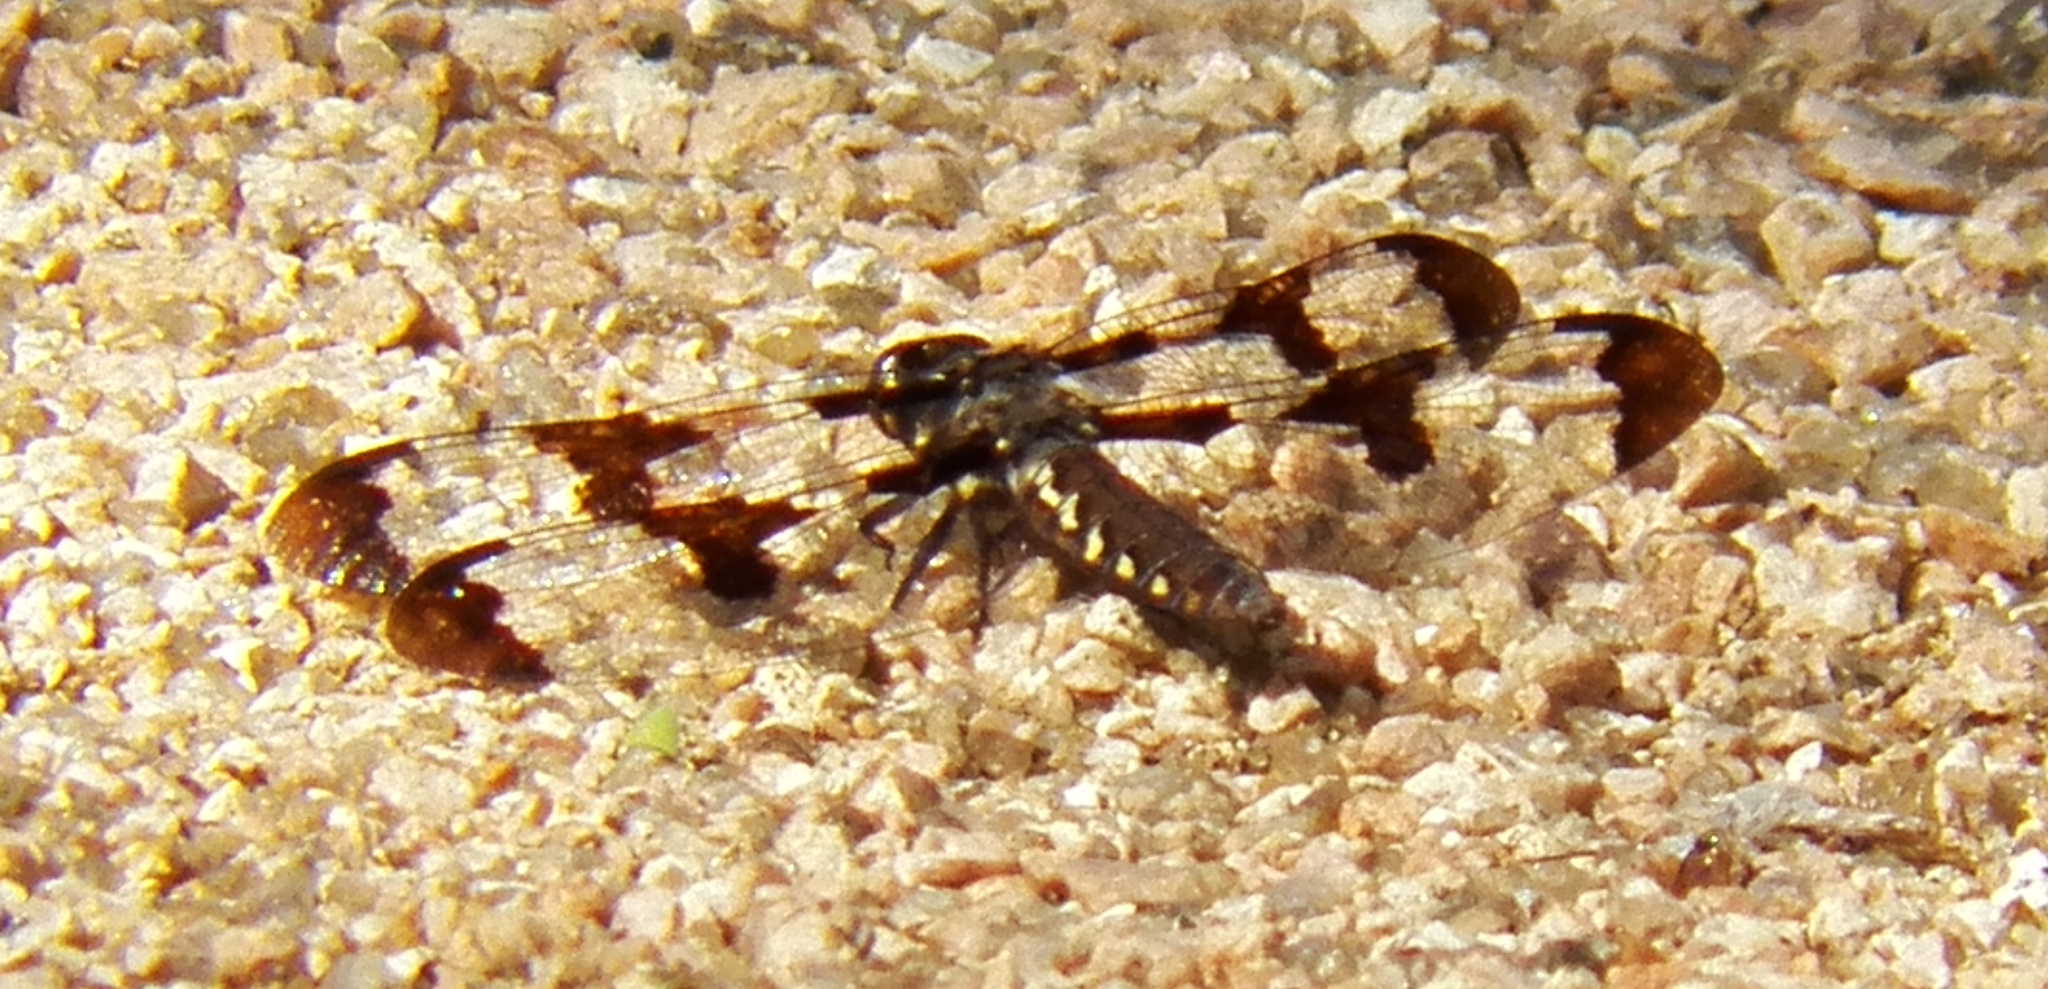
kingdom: Animalia
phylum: Arthropoda
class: Insecta
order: Odonata
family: Libellulidae
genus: Plathemis
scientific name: Plathemis lydia
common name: Common whitetail
